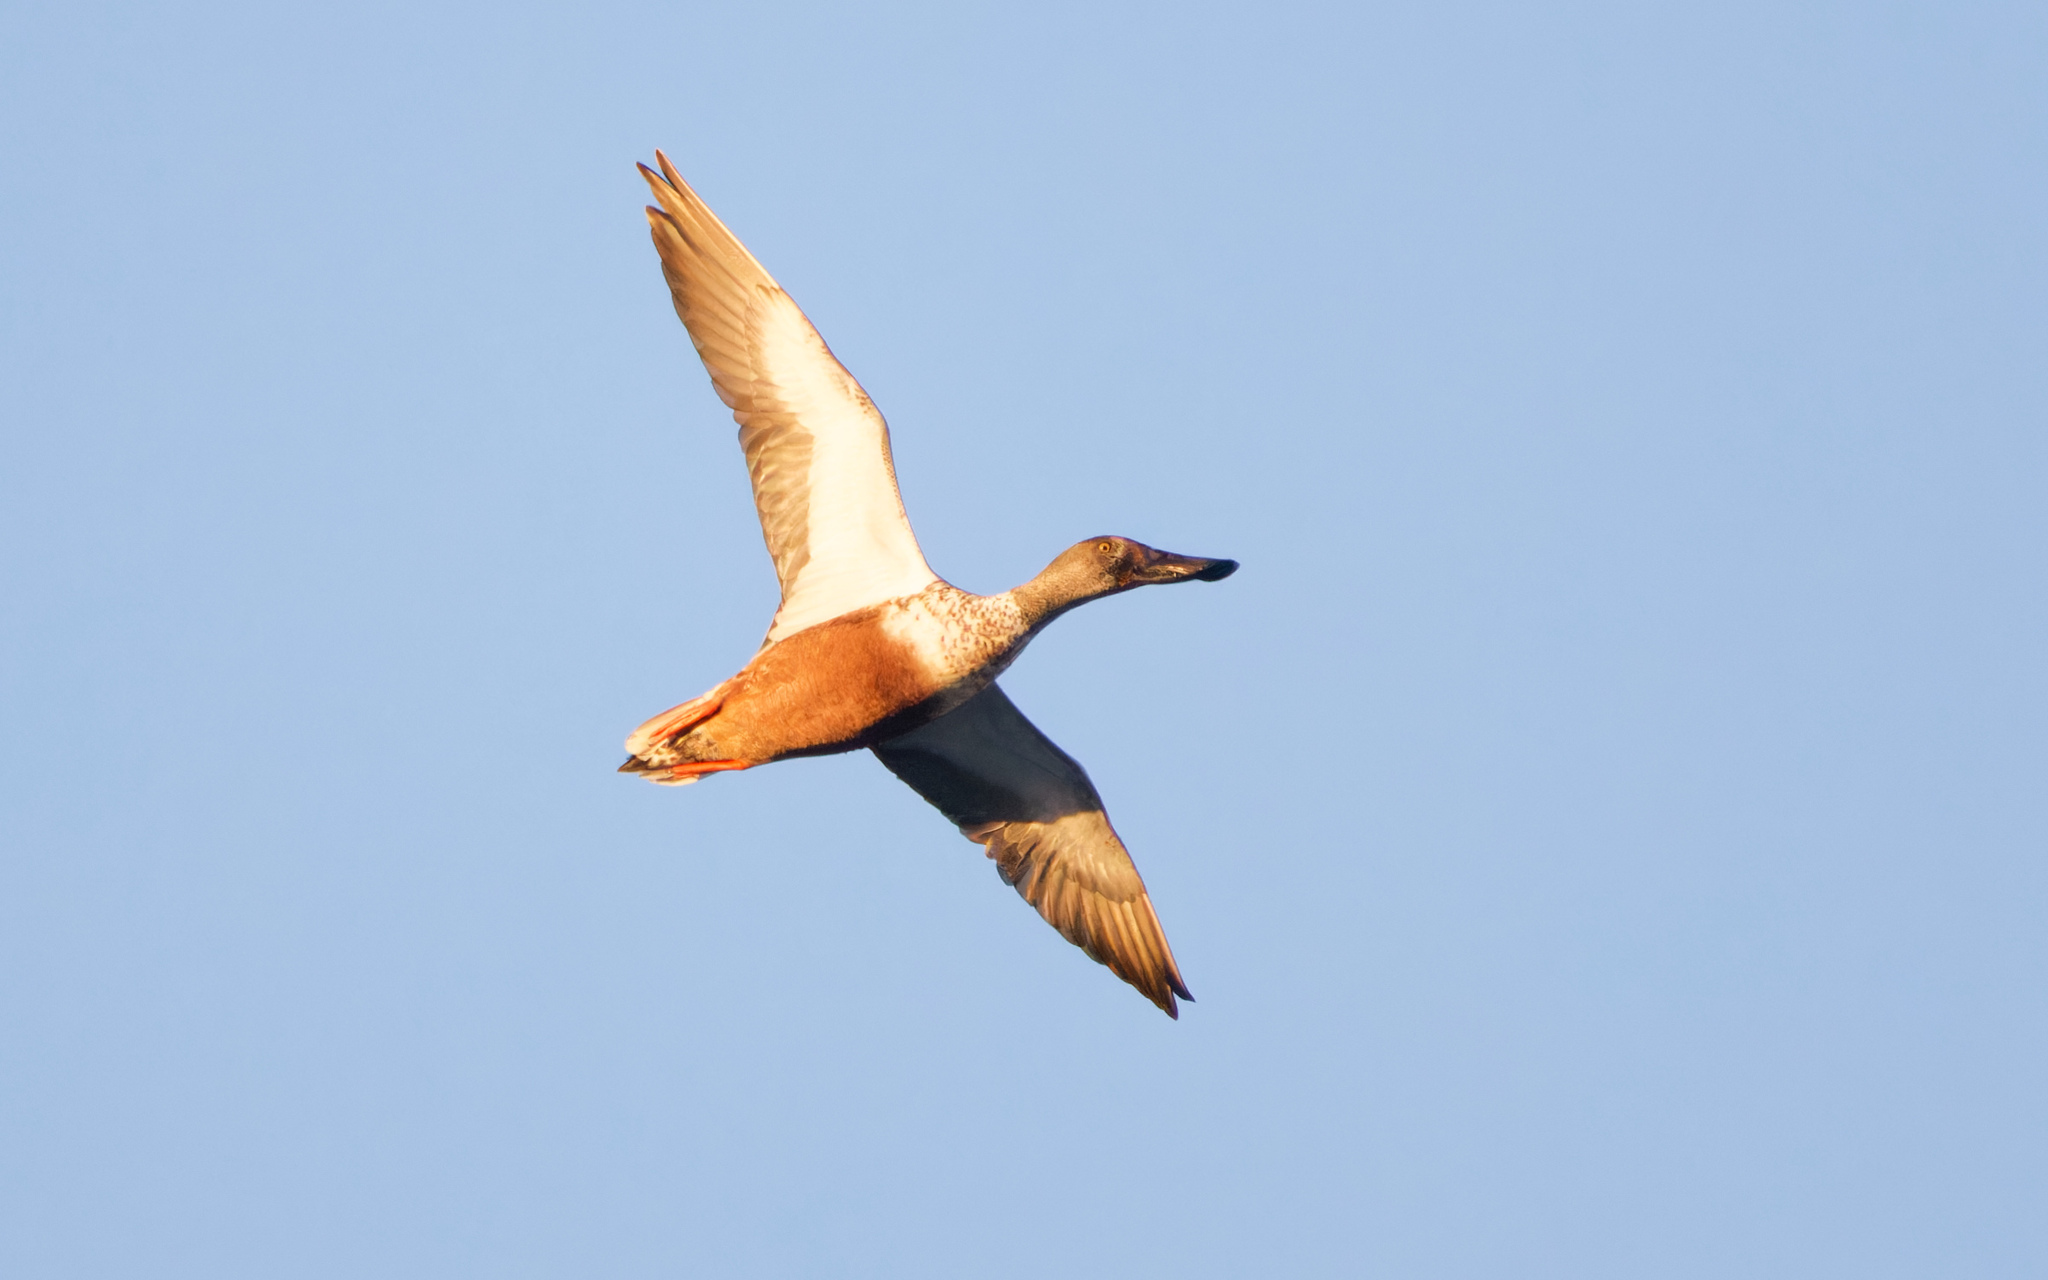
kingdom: Animalia
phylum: Chordata
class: Aves
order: Anseriformes
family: Anatidae
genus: Spatula
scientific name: Spatula clypeata
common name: Northern shoveler
